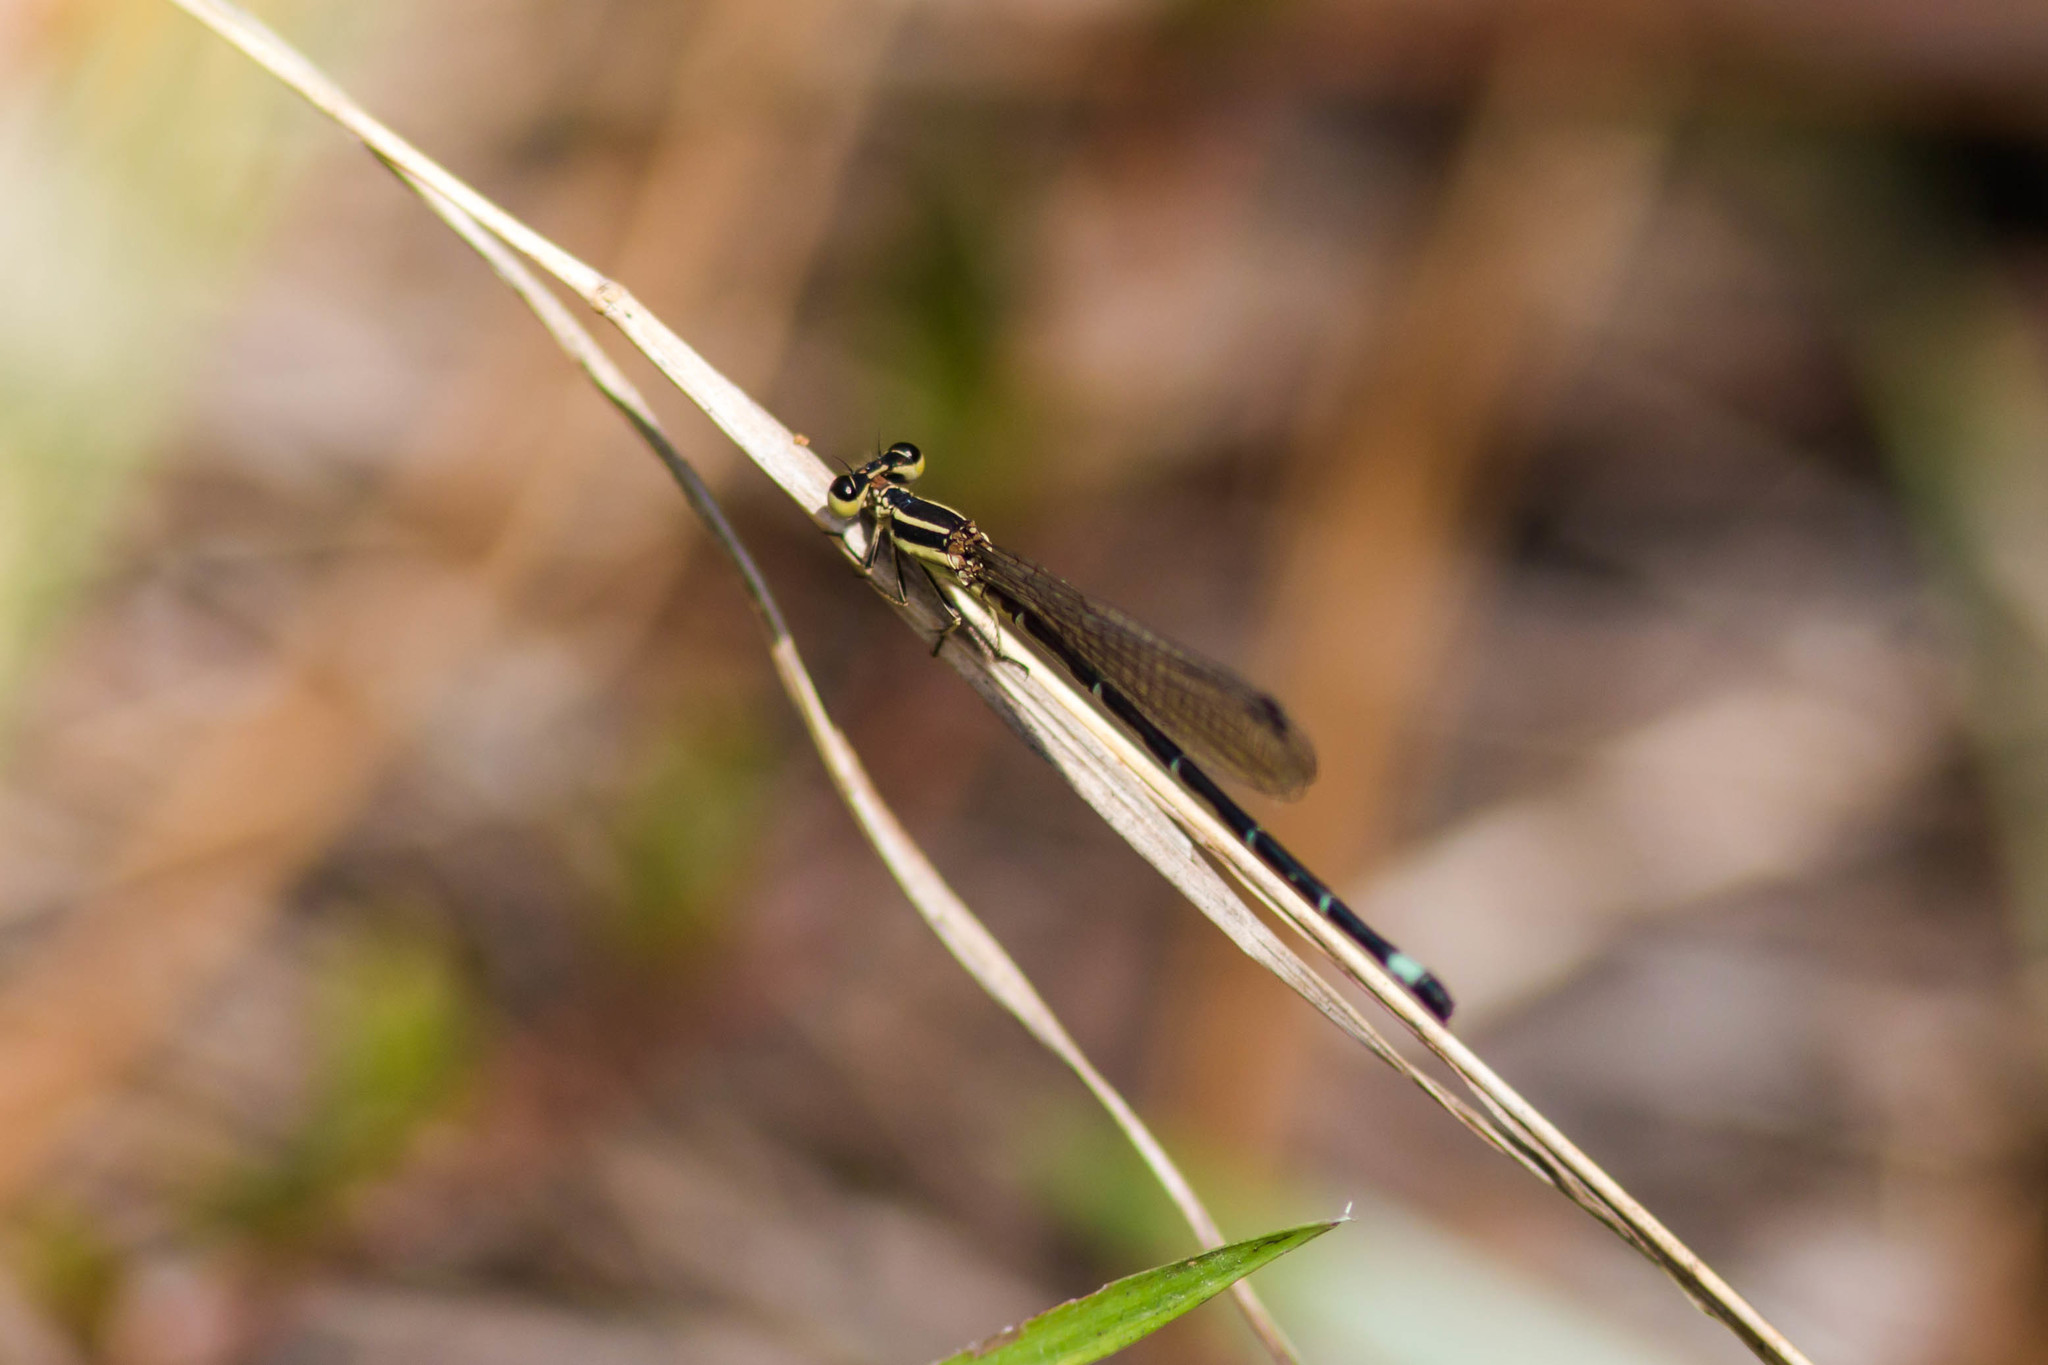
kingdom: Animalia
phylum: Arthropoda
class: Insecta
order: Odonata
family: Coenagrionidae
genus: Argia
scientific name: Argia bipunctulata
